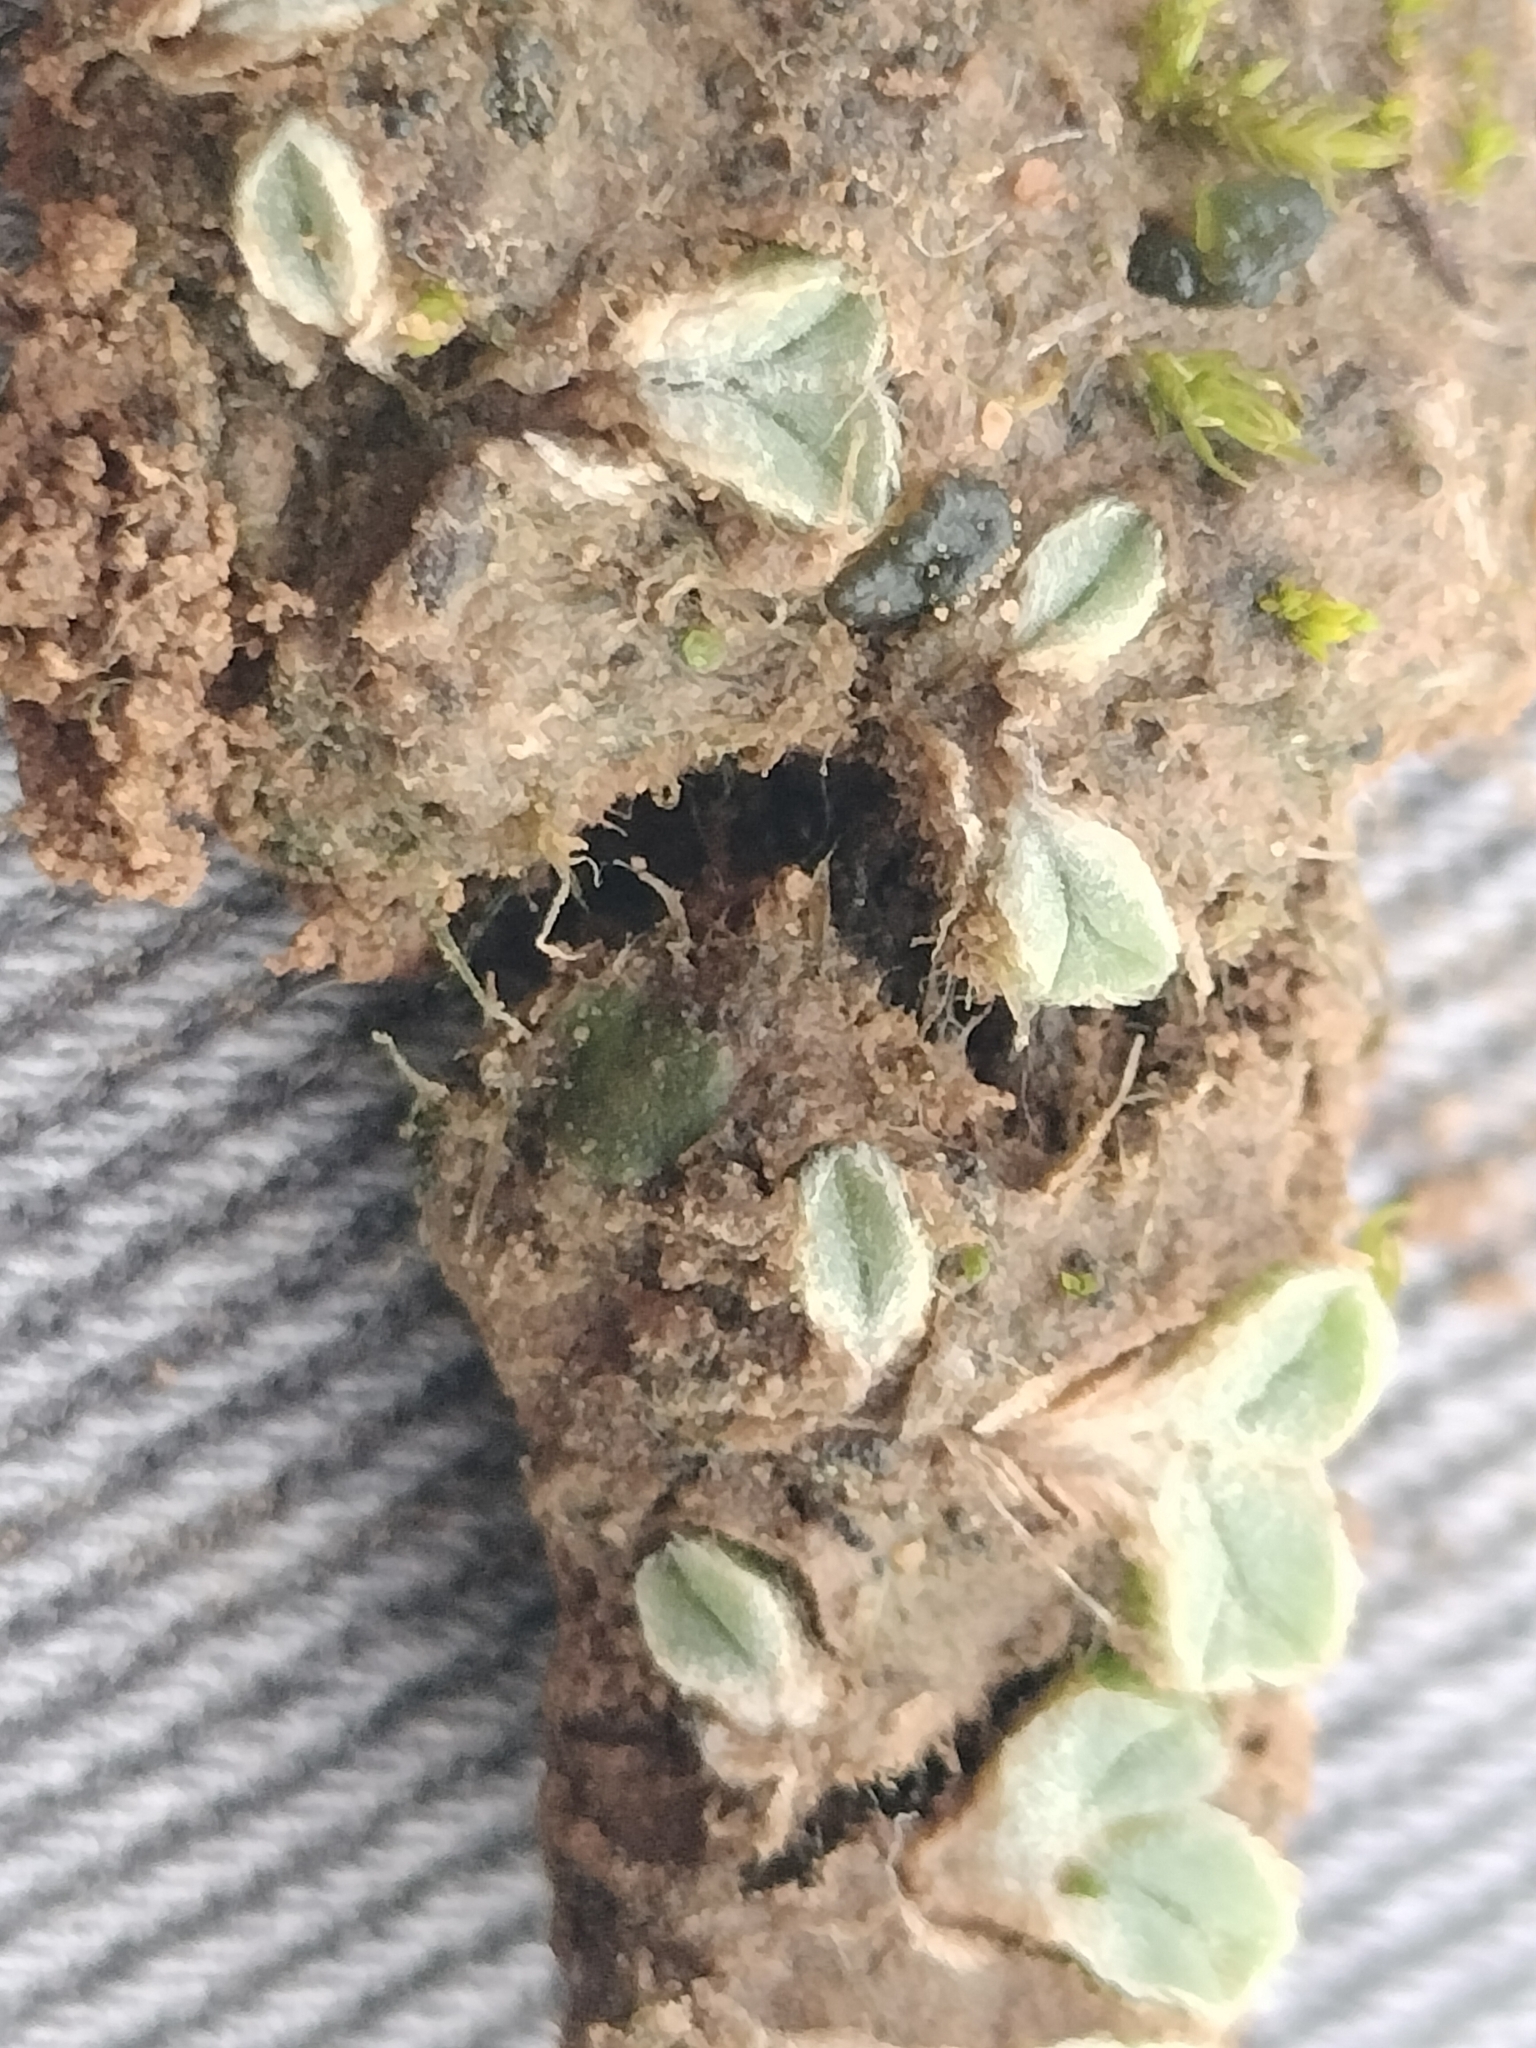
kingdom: Plantae
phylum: Marchantiophyta
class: Marchantiopsida
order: Marchantiales
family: Ricciaceae
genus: Riccia
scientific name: Riccia lamellosa
